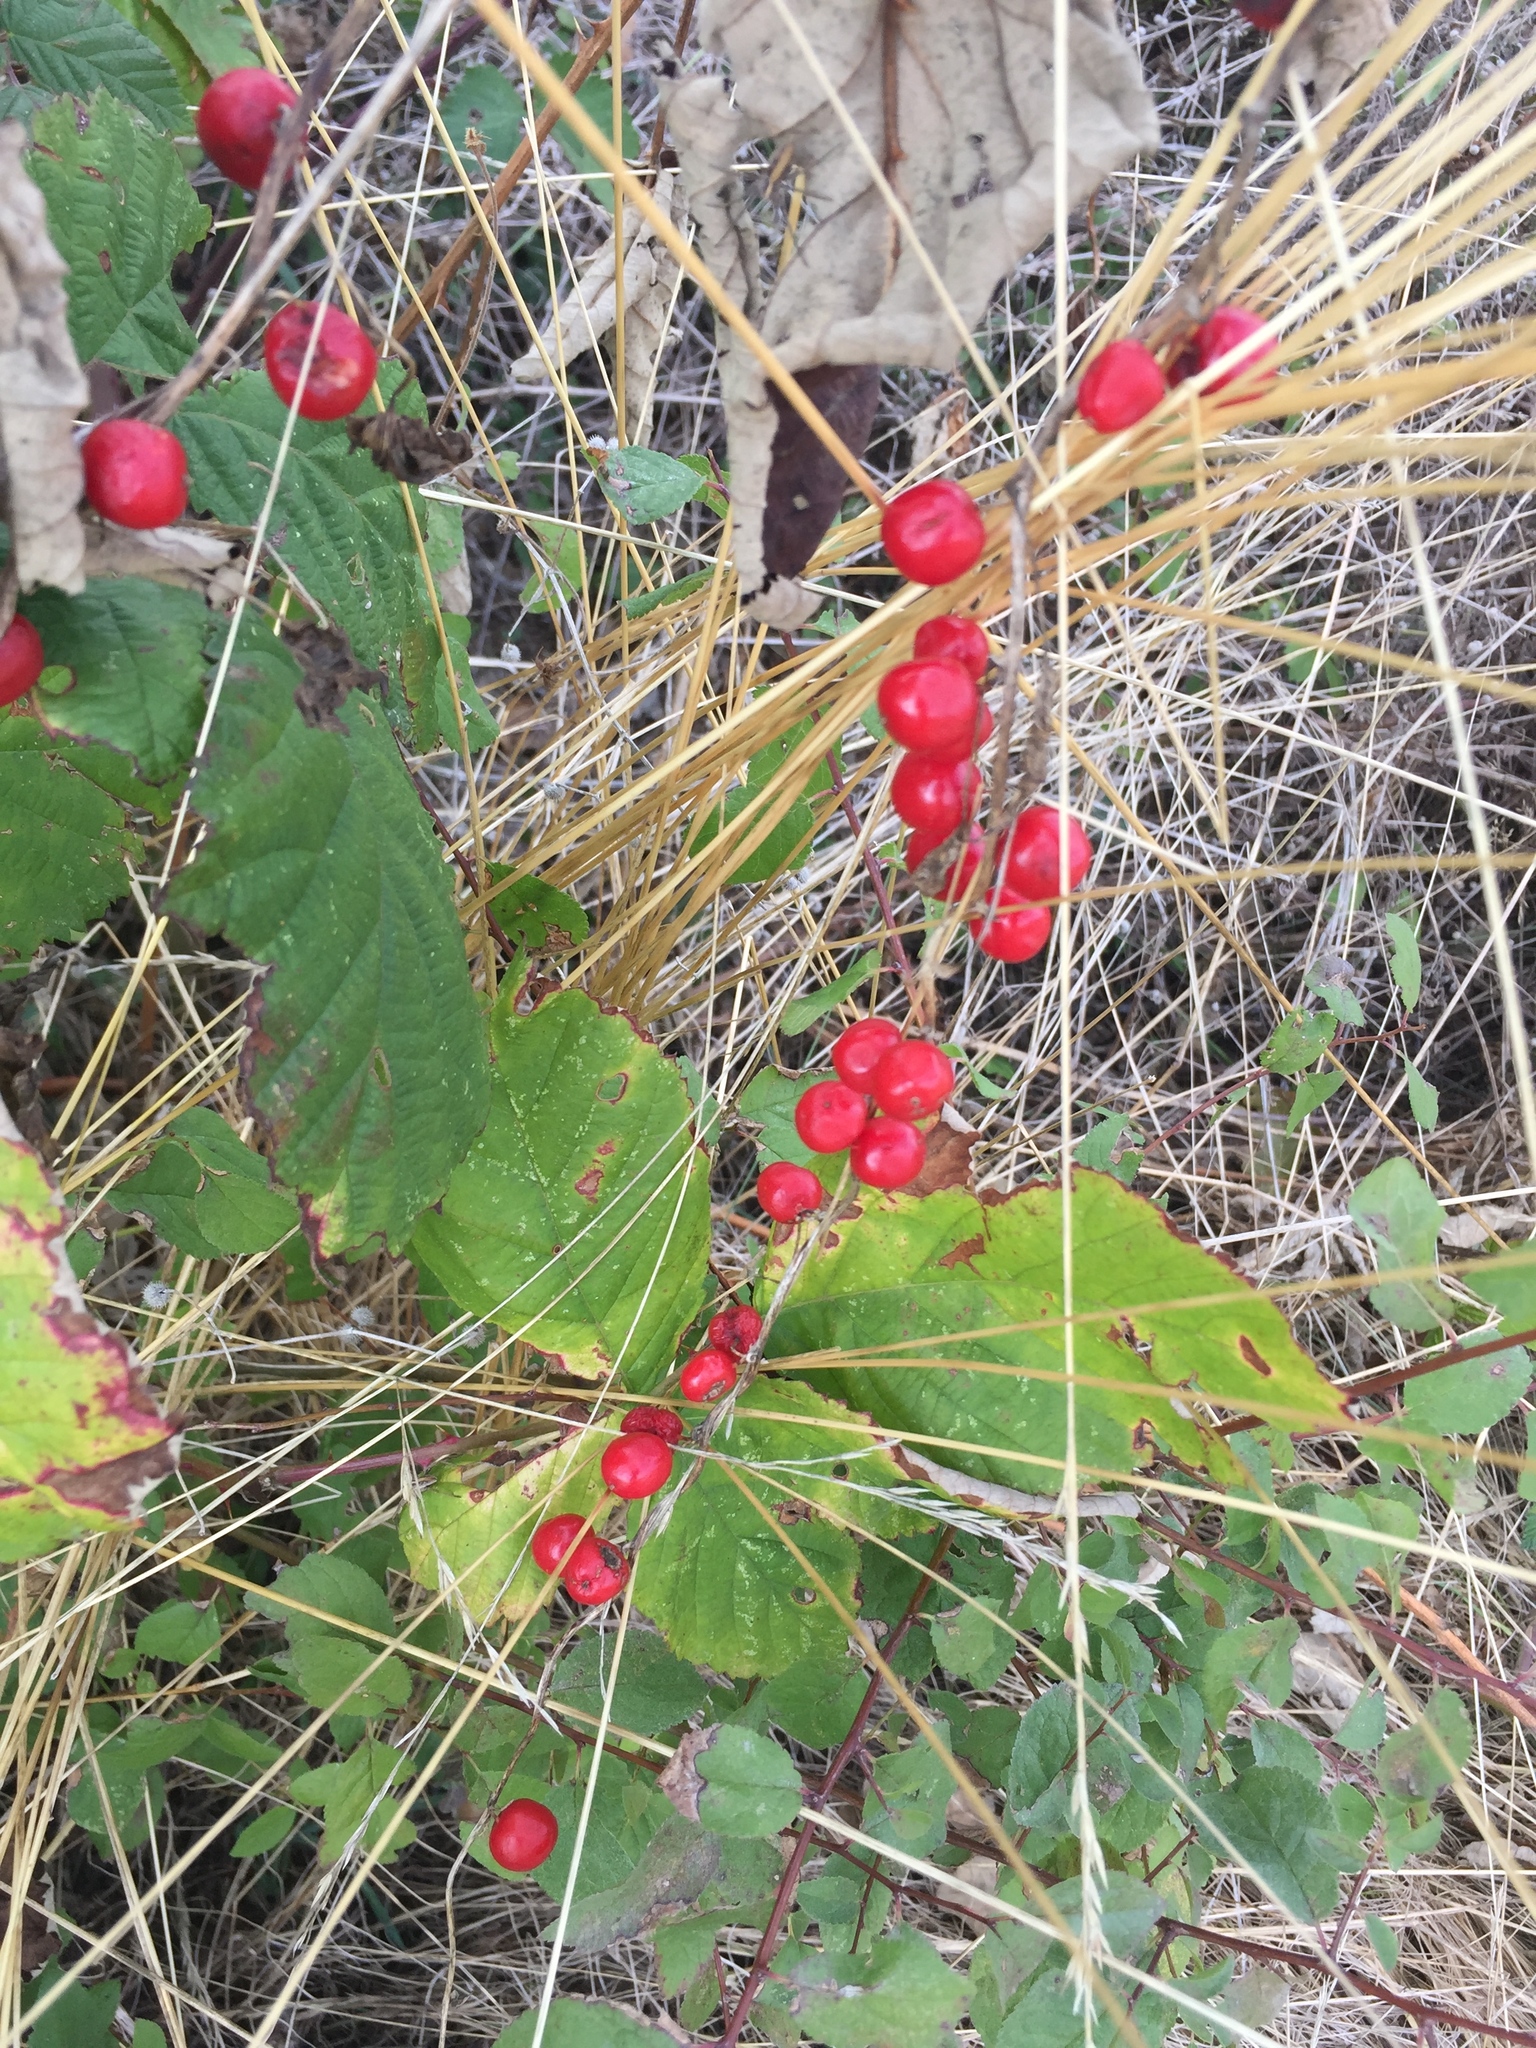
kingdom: Plantae
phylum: Tracheophyta
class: Liliopsida
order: Dioscoreales
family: Dioscoreaceae
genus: Dioscorea
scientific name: Dioscorea communis
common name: Black-bindweed
